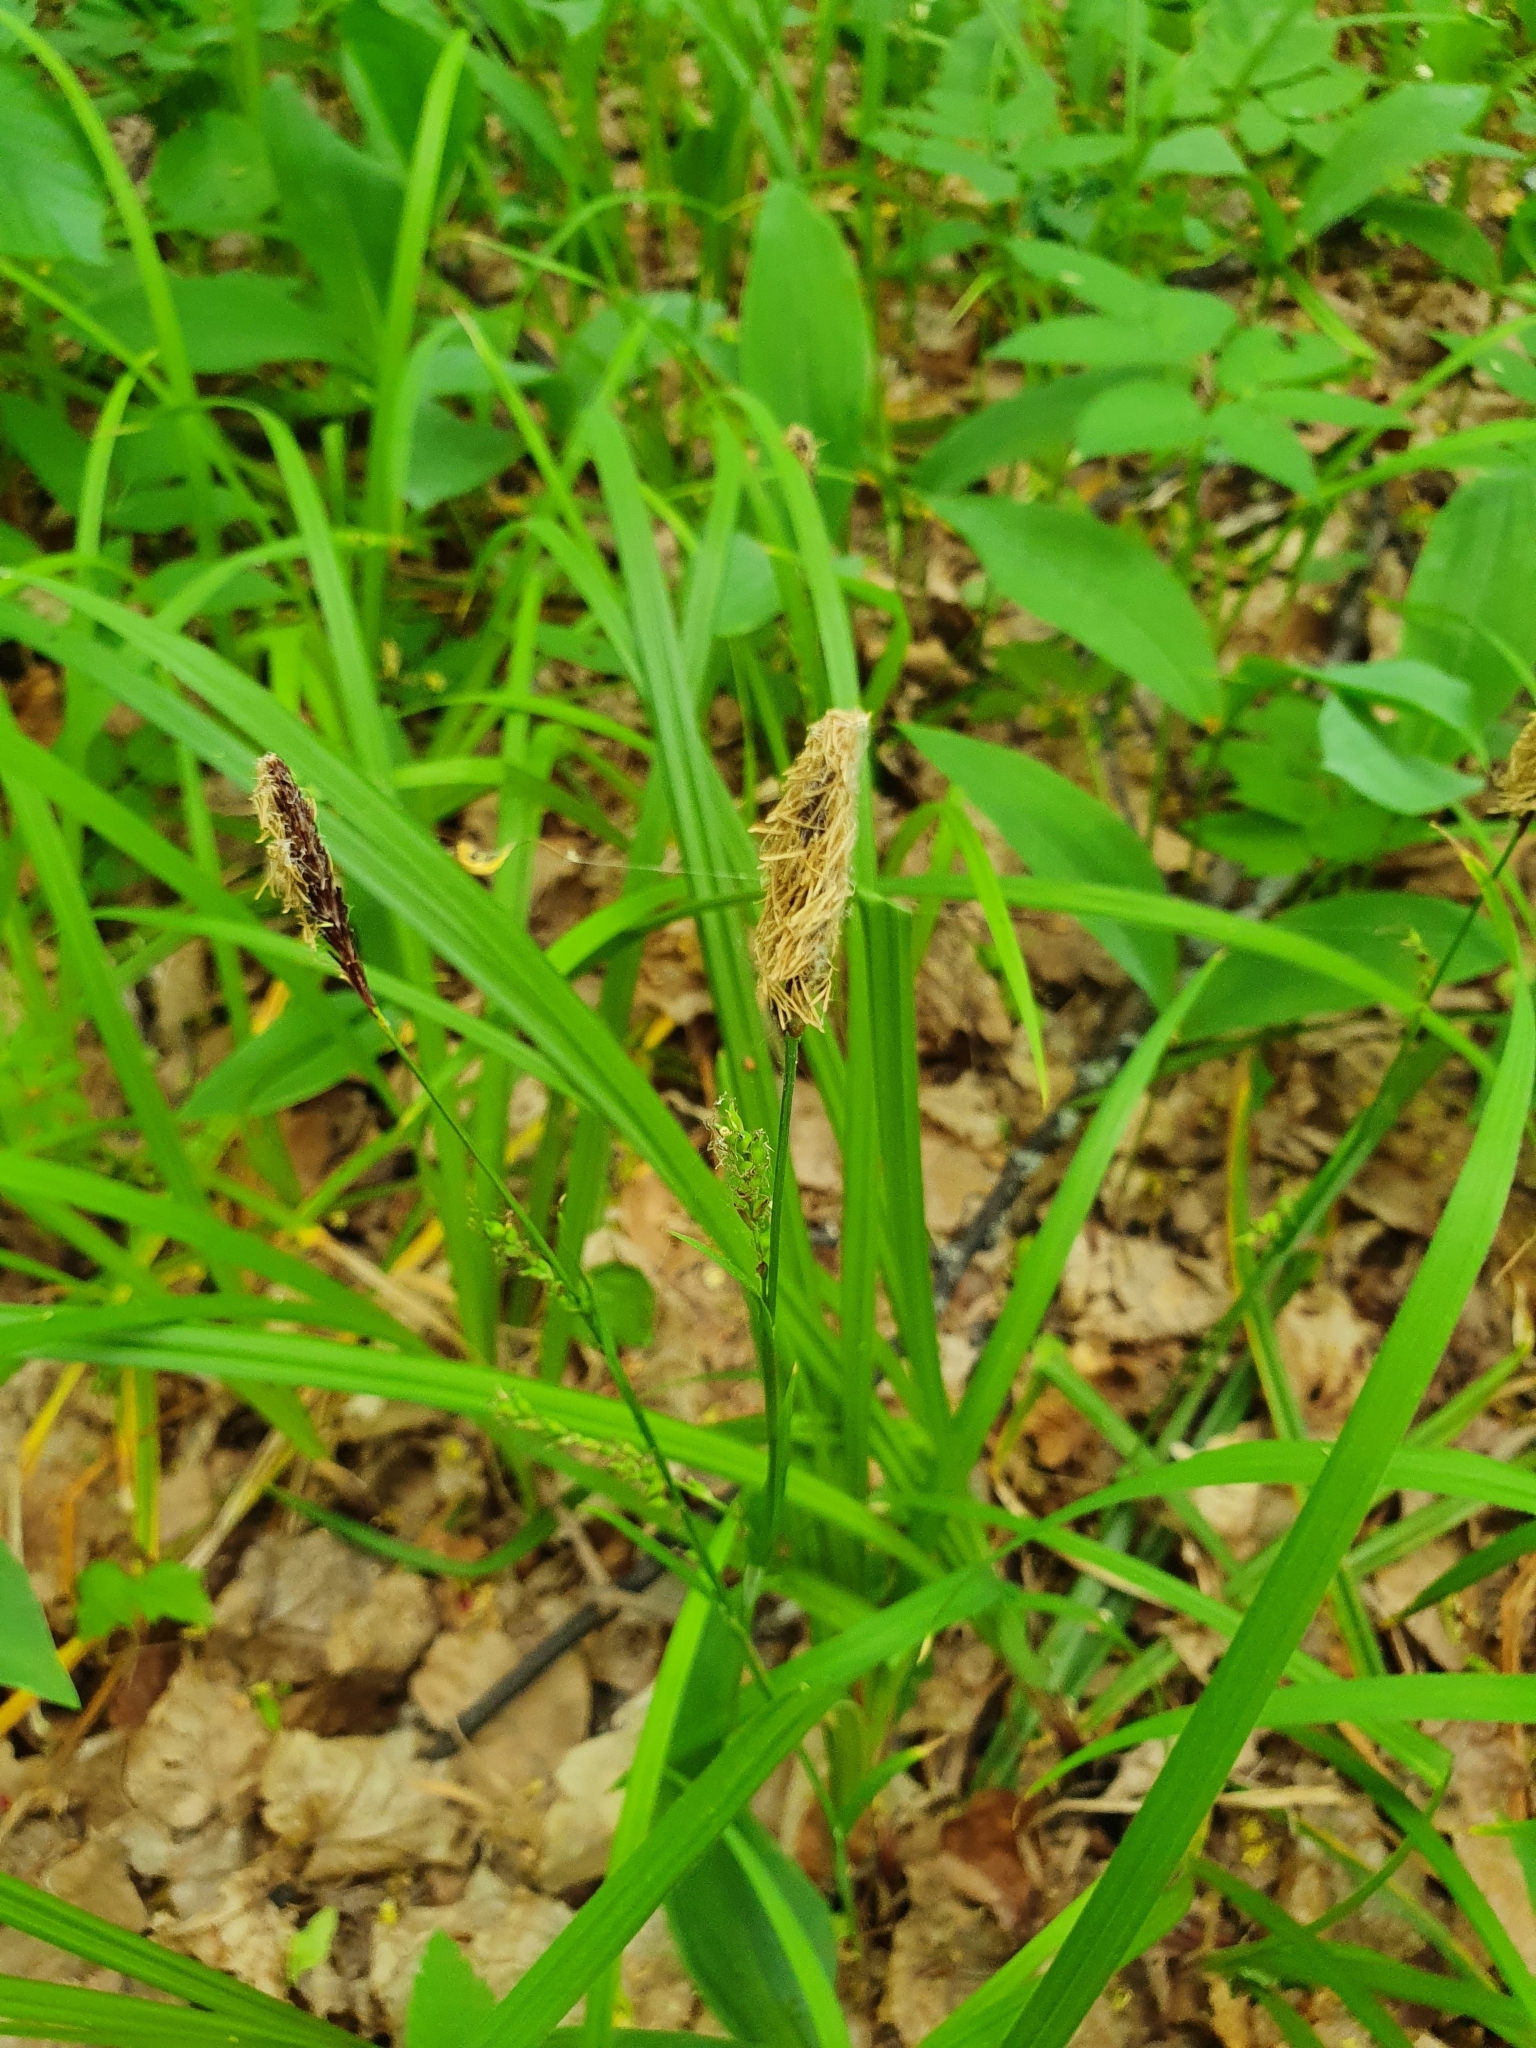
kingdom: Plantae
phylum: Tracheophyta
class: Liliopsida
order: Poales
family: Cyperaceae
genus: Carex
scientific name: Carex pilosa
